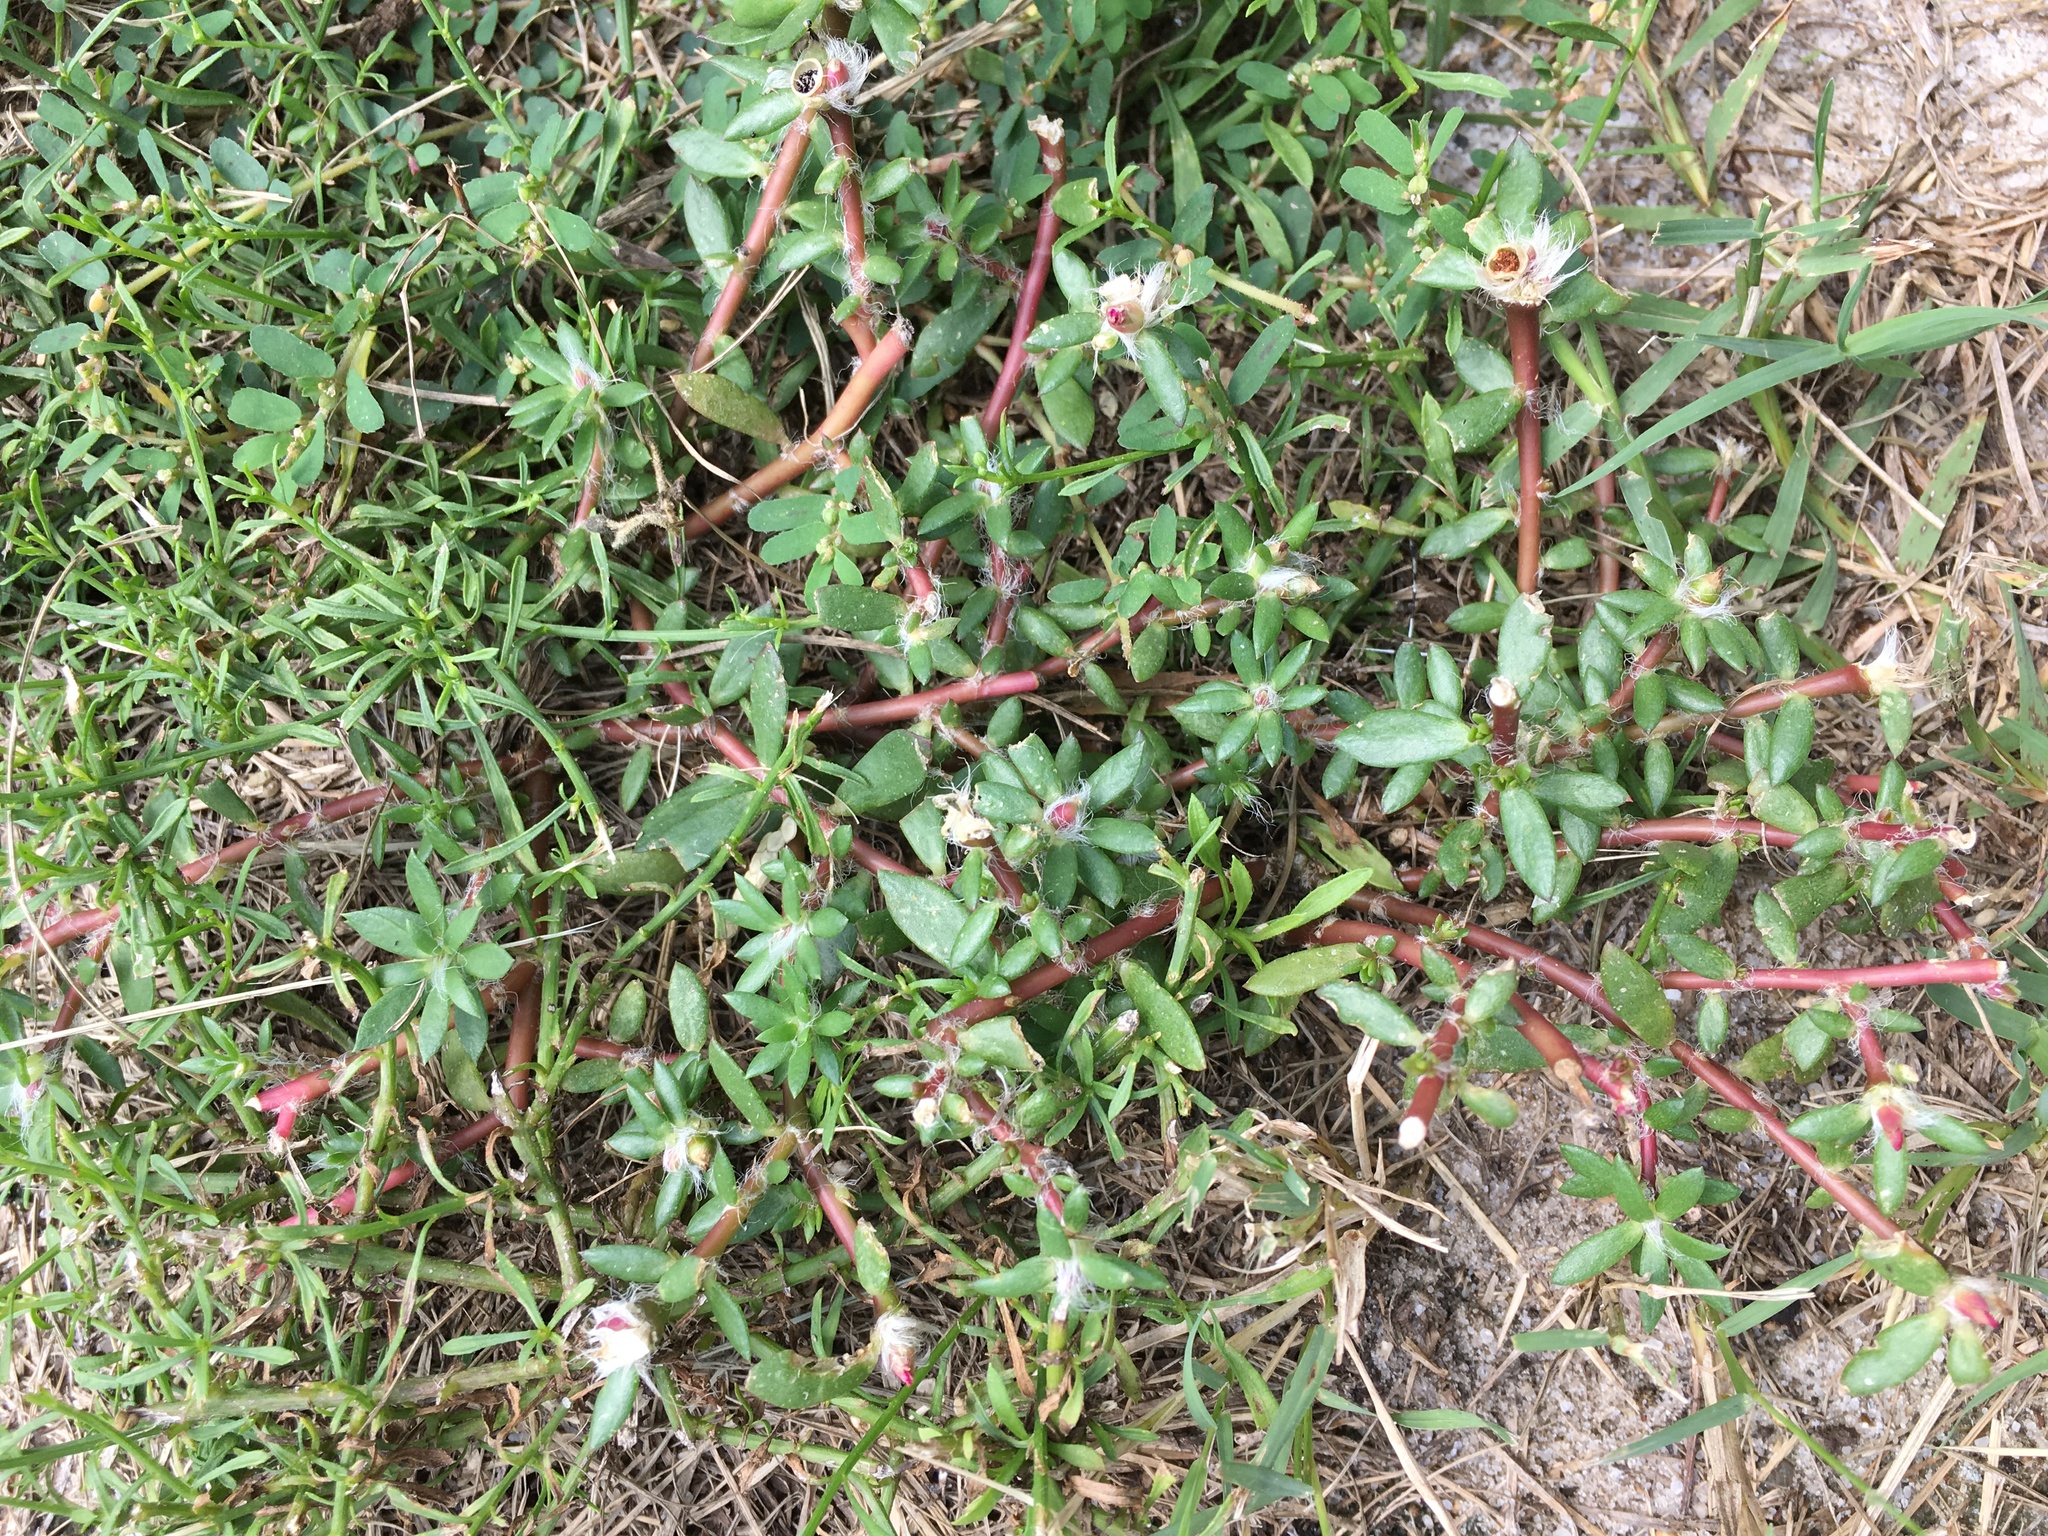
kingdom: Plantae
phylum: Tracheophyta
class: Magnoliopsida
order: Caryophyllales
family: Portulacaceae
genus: Portulaca
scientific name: Portulaca amilis
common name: Paraguayan purslane
